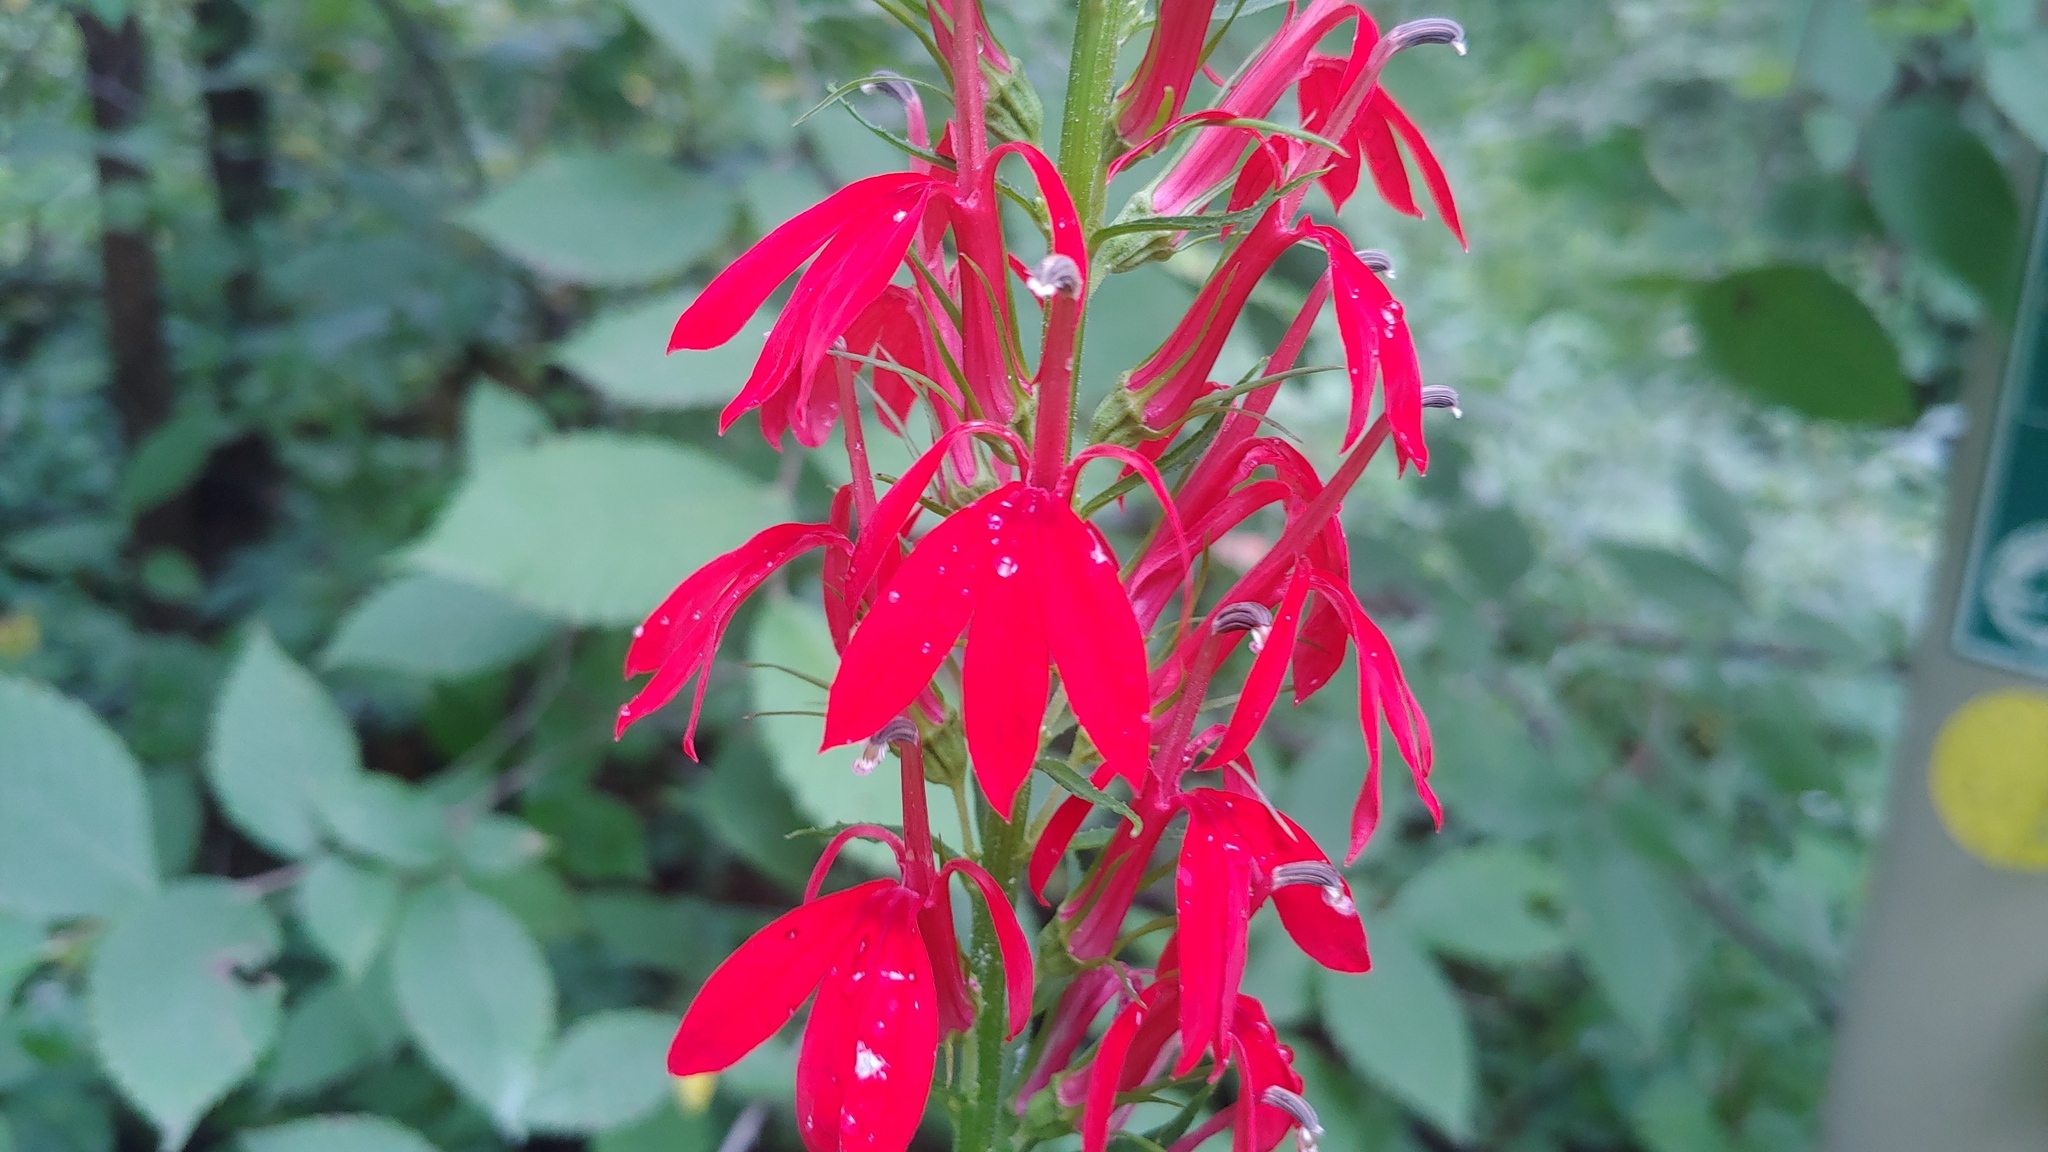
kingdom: Plantae
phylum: Tracheophyta
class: Magnoliopsida
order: Asterales
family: Campanulaceae
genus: Lobelia
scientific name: Lobelia cardinalis
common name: Cardinal flower
